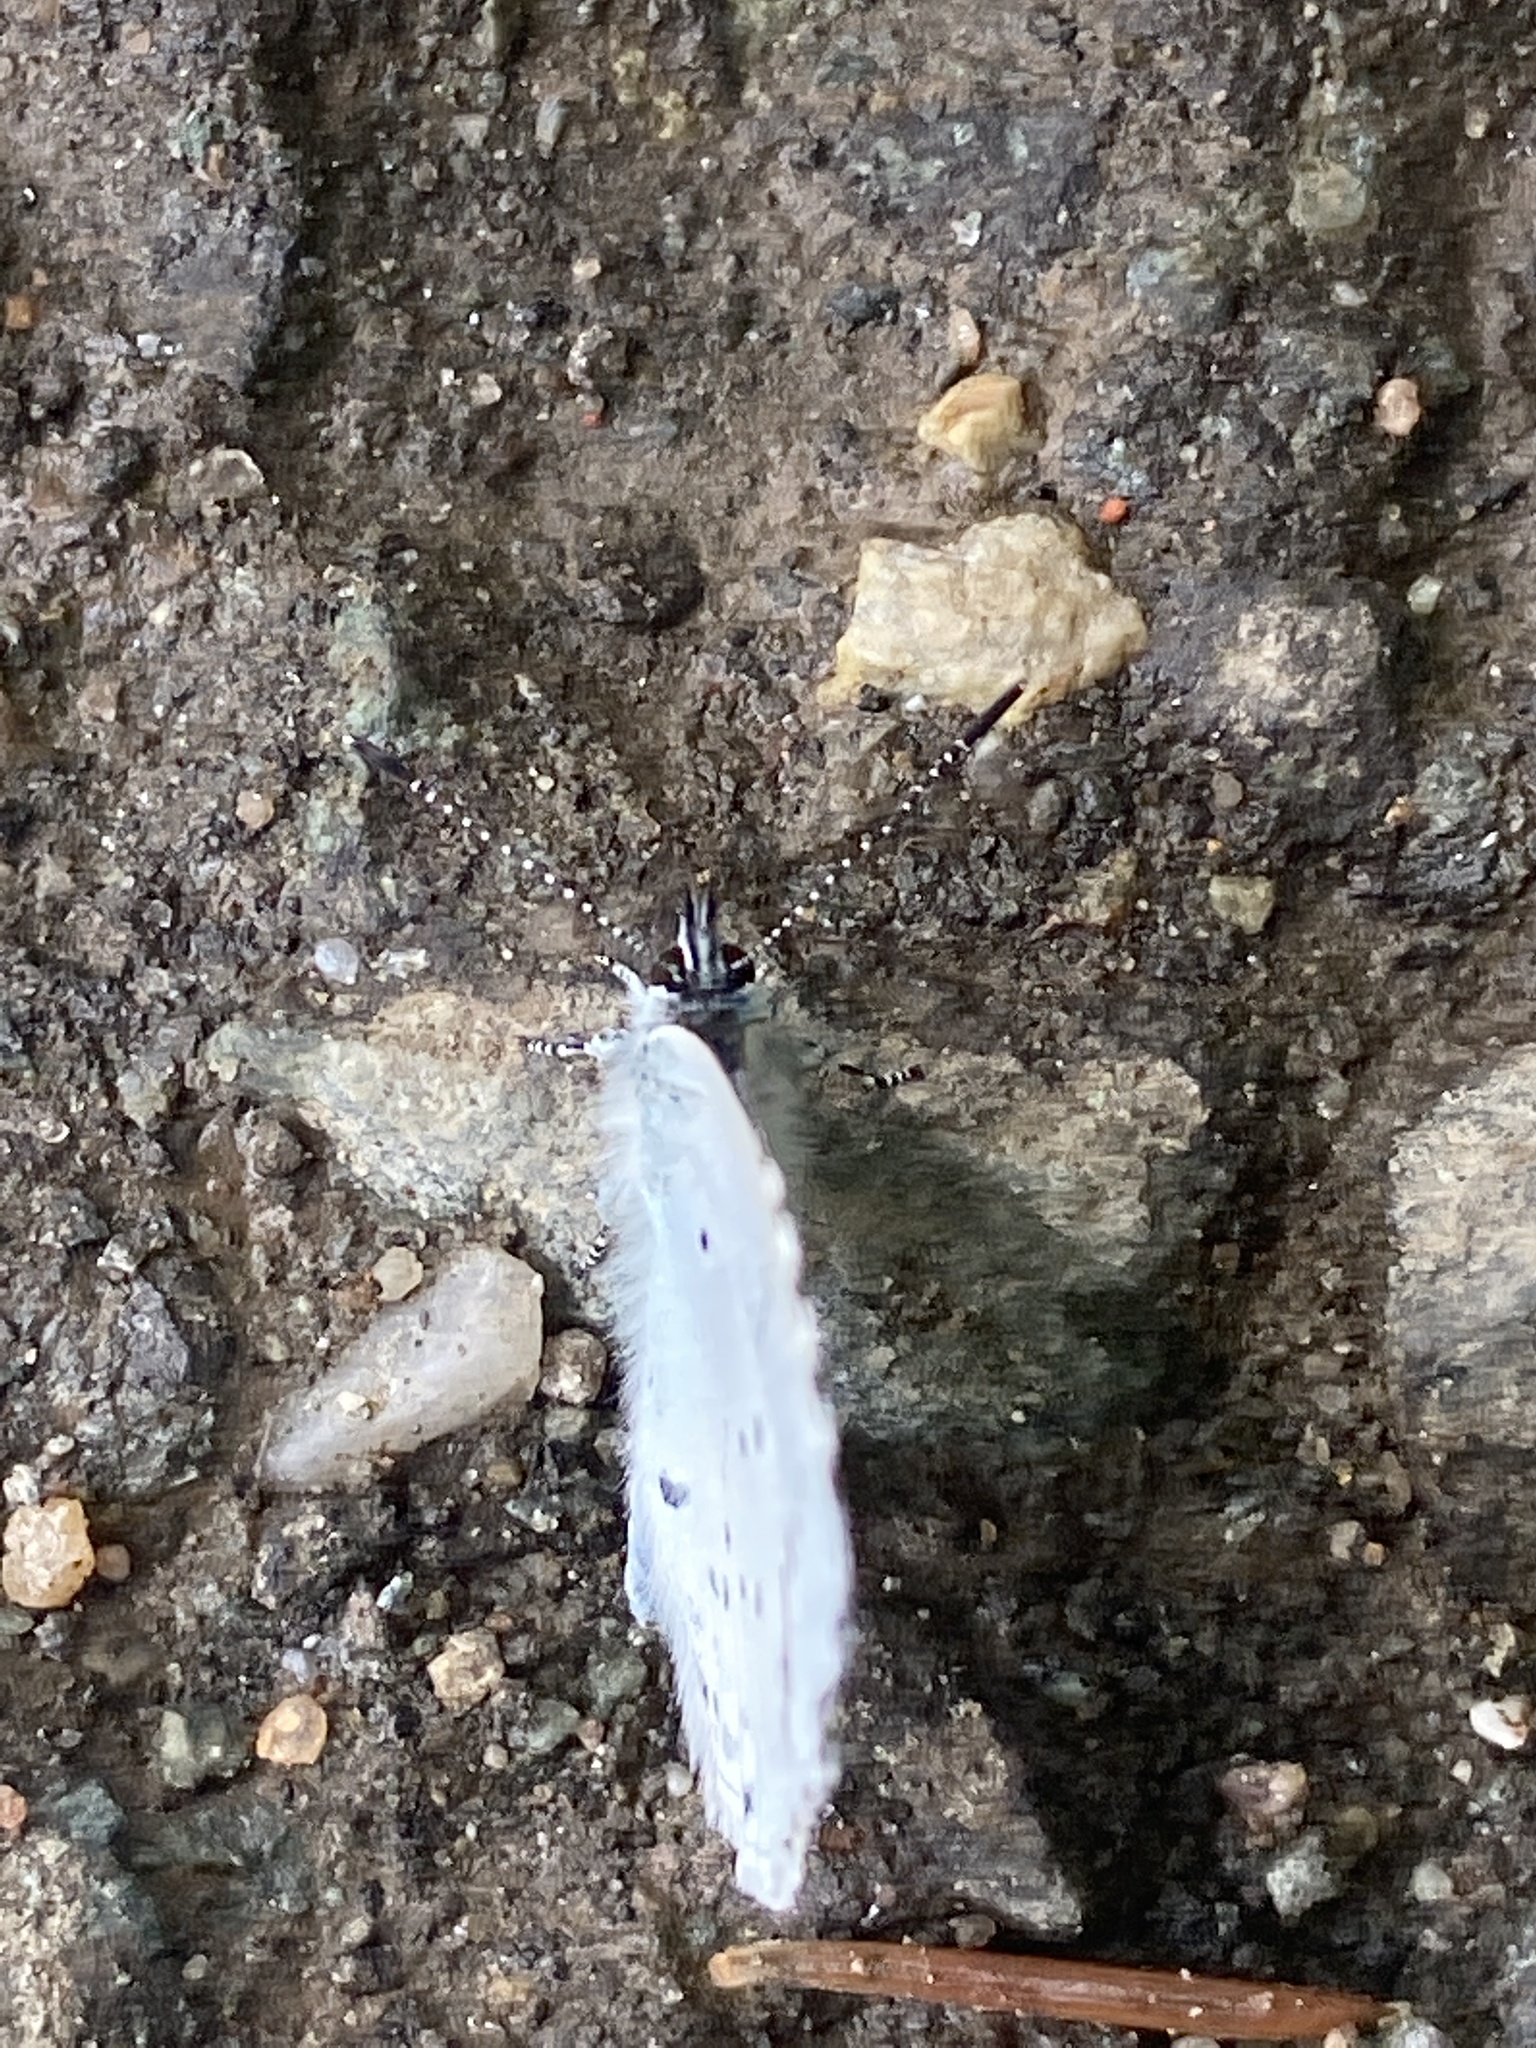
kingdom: Animalia
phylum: Arthropoda
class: Insecta
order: Lepidoptera
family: Lycaenidae
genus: Celastrina
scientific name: Celastrina argiolus
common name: Holly blue
